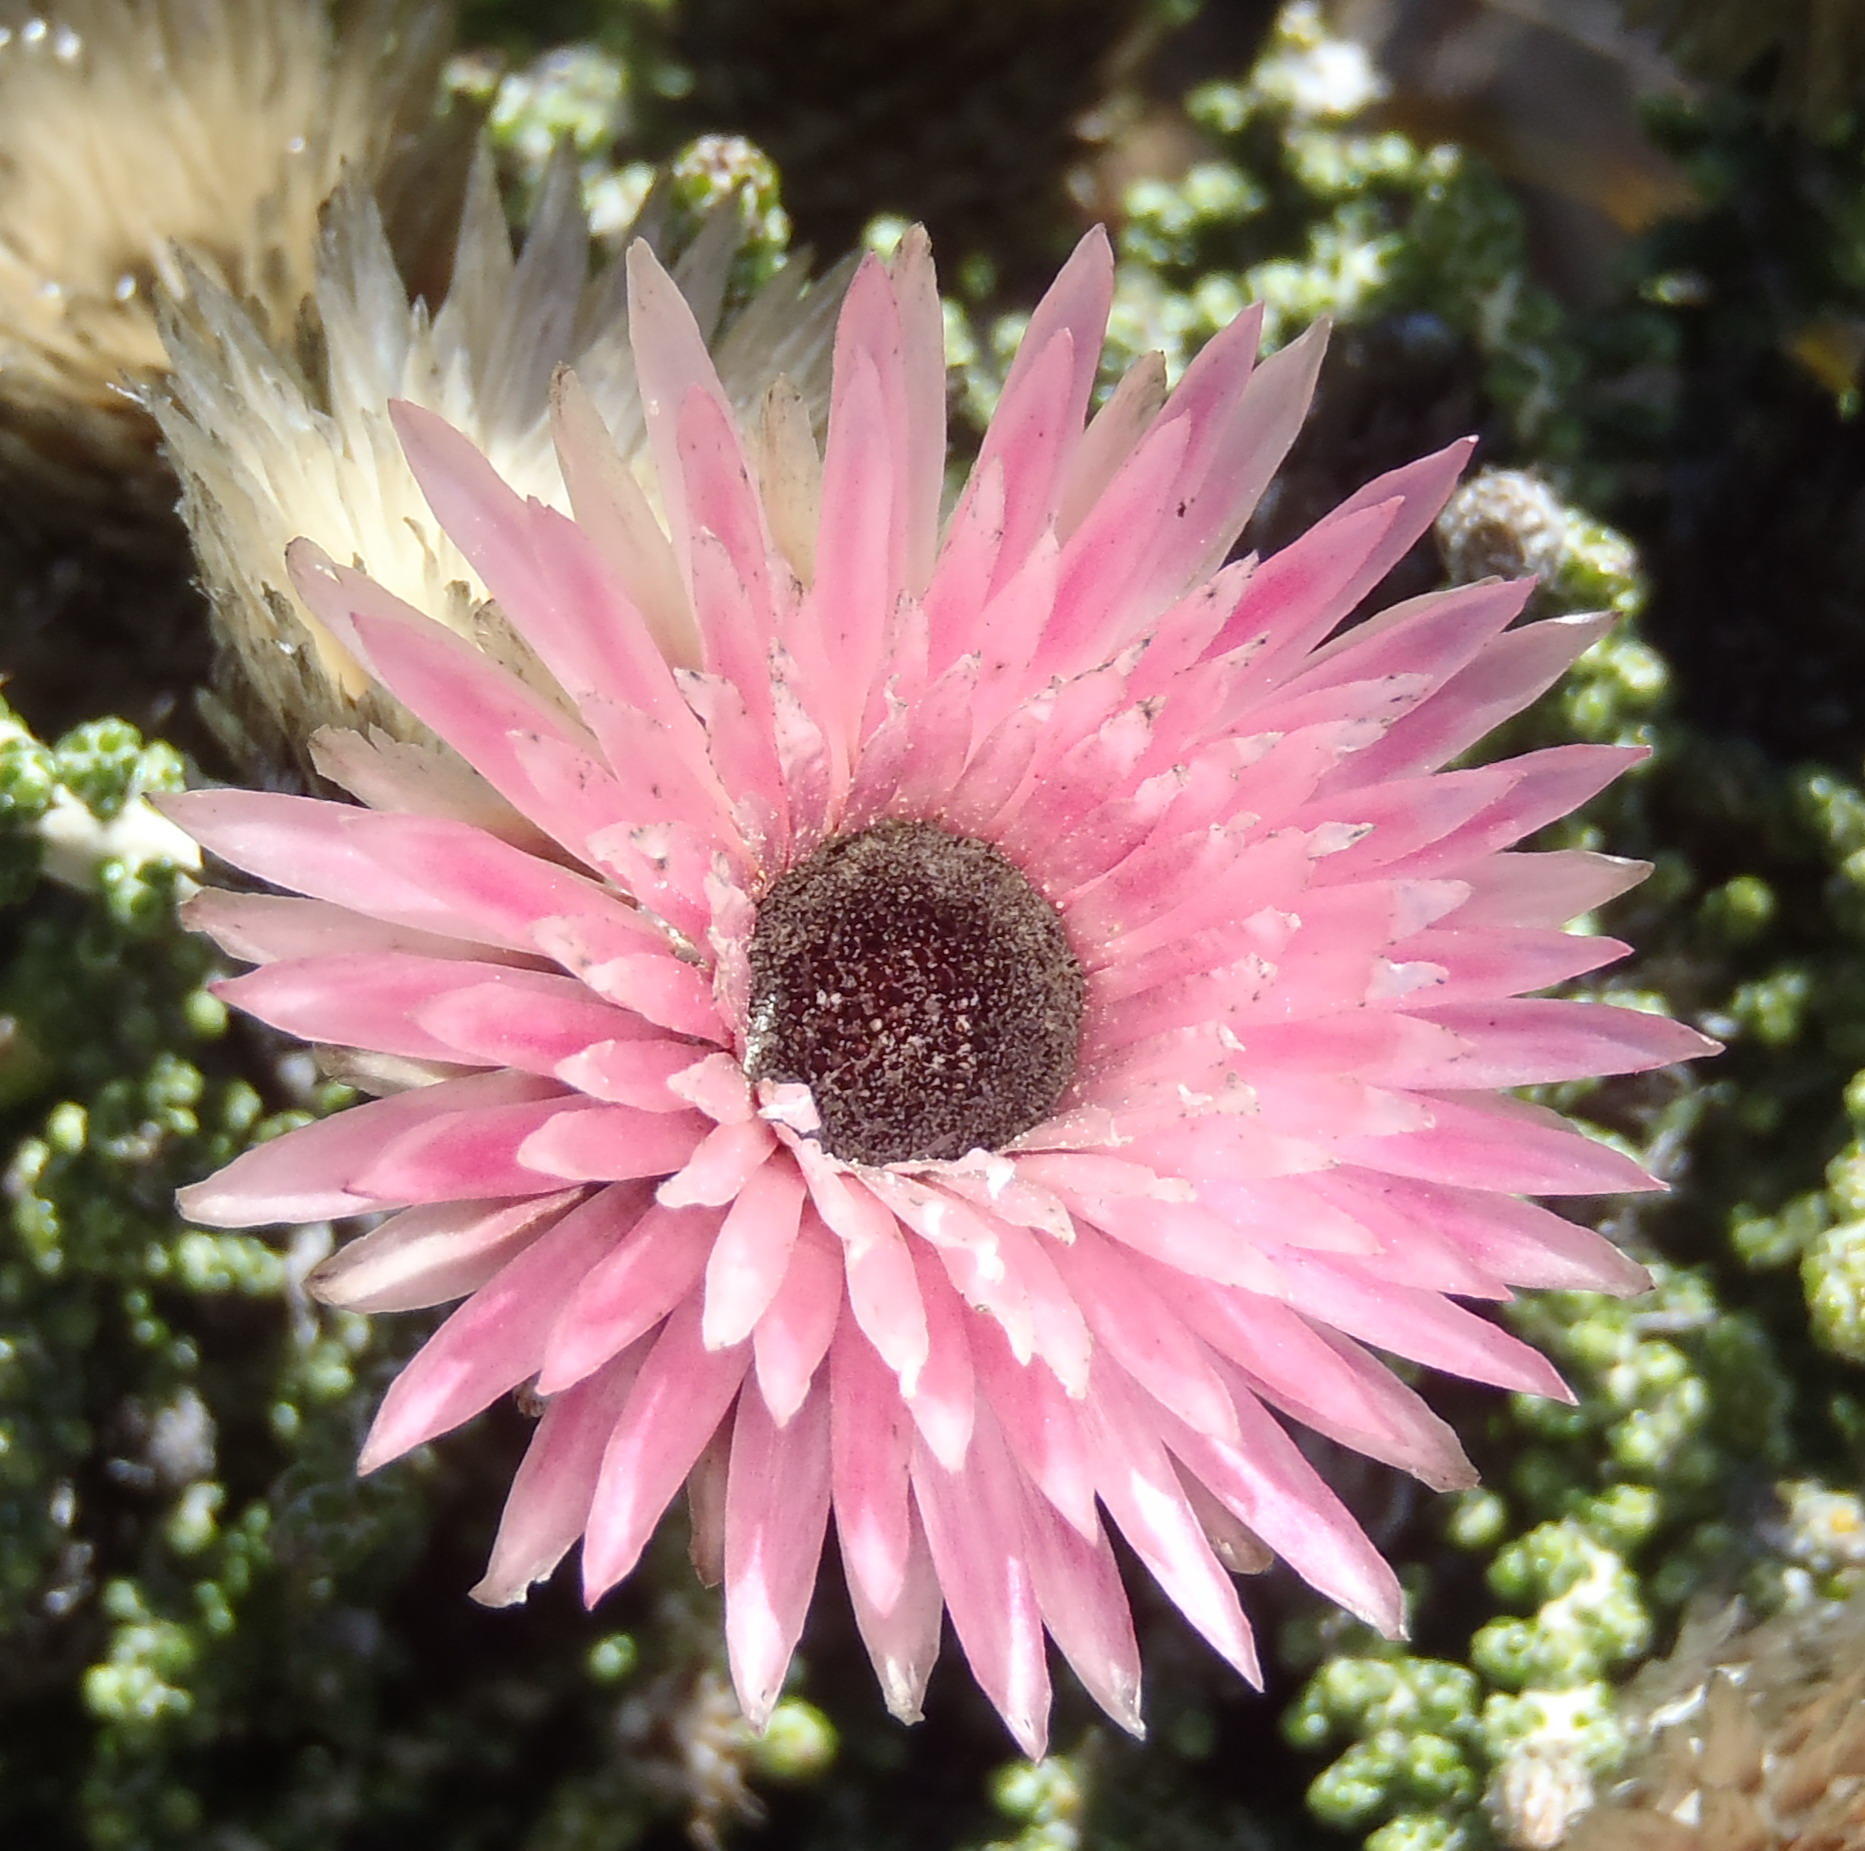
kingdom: Plantae
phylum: Tracheophyta
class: Magnoliopsida
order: Asterales
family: Asteraceae
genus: Phaenocoma
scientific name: Phaenocoma prolifera
